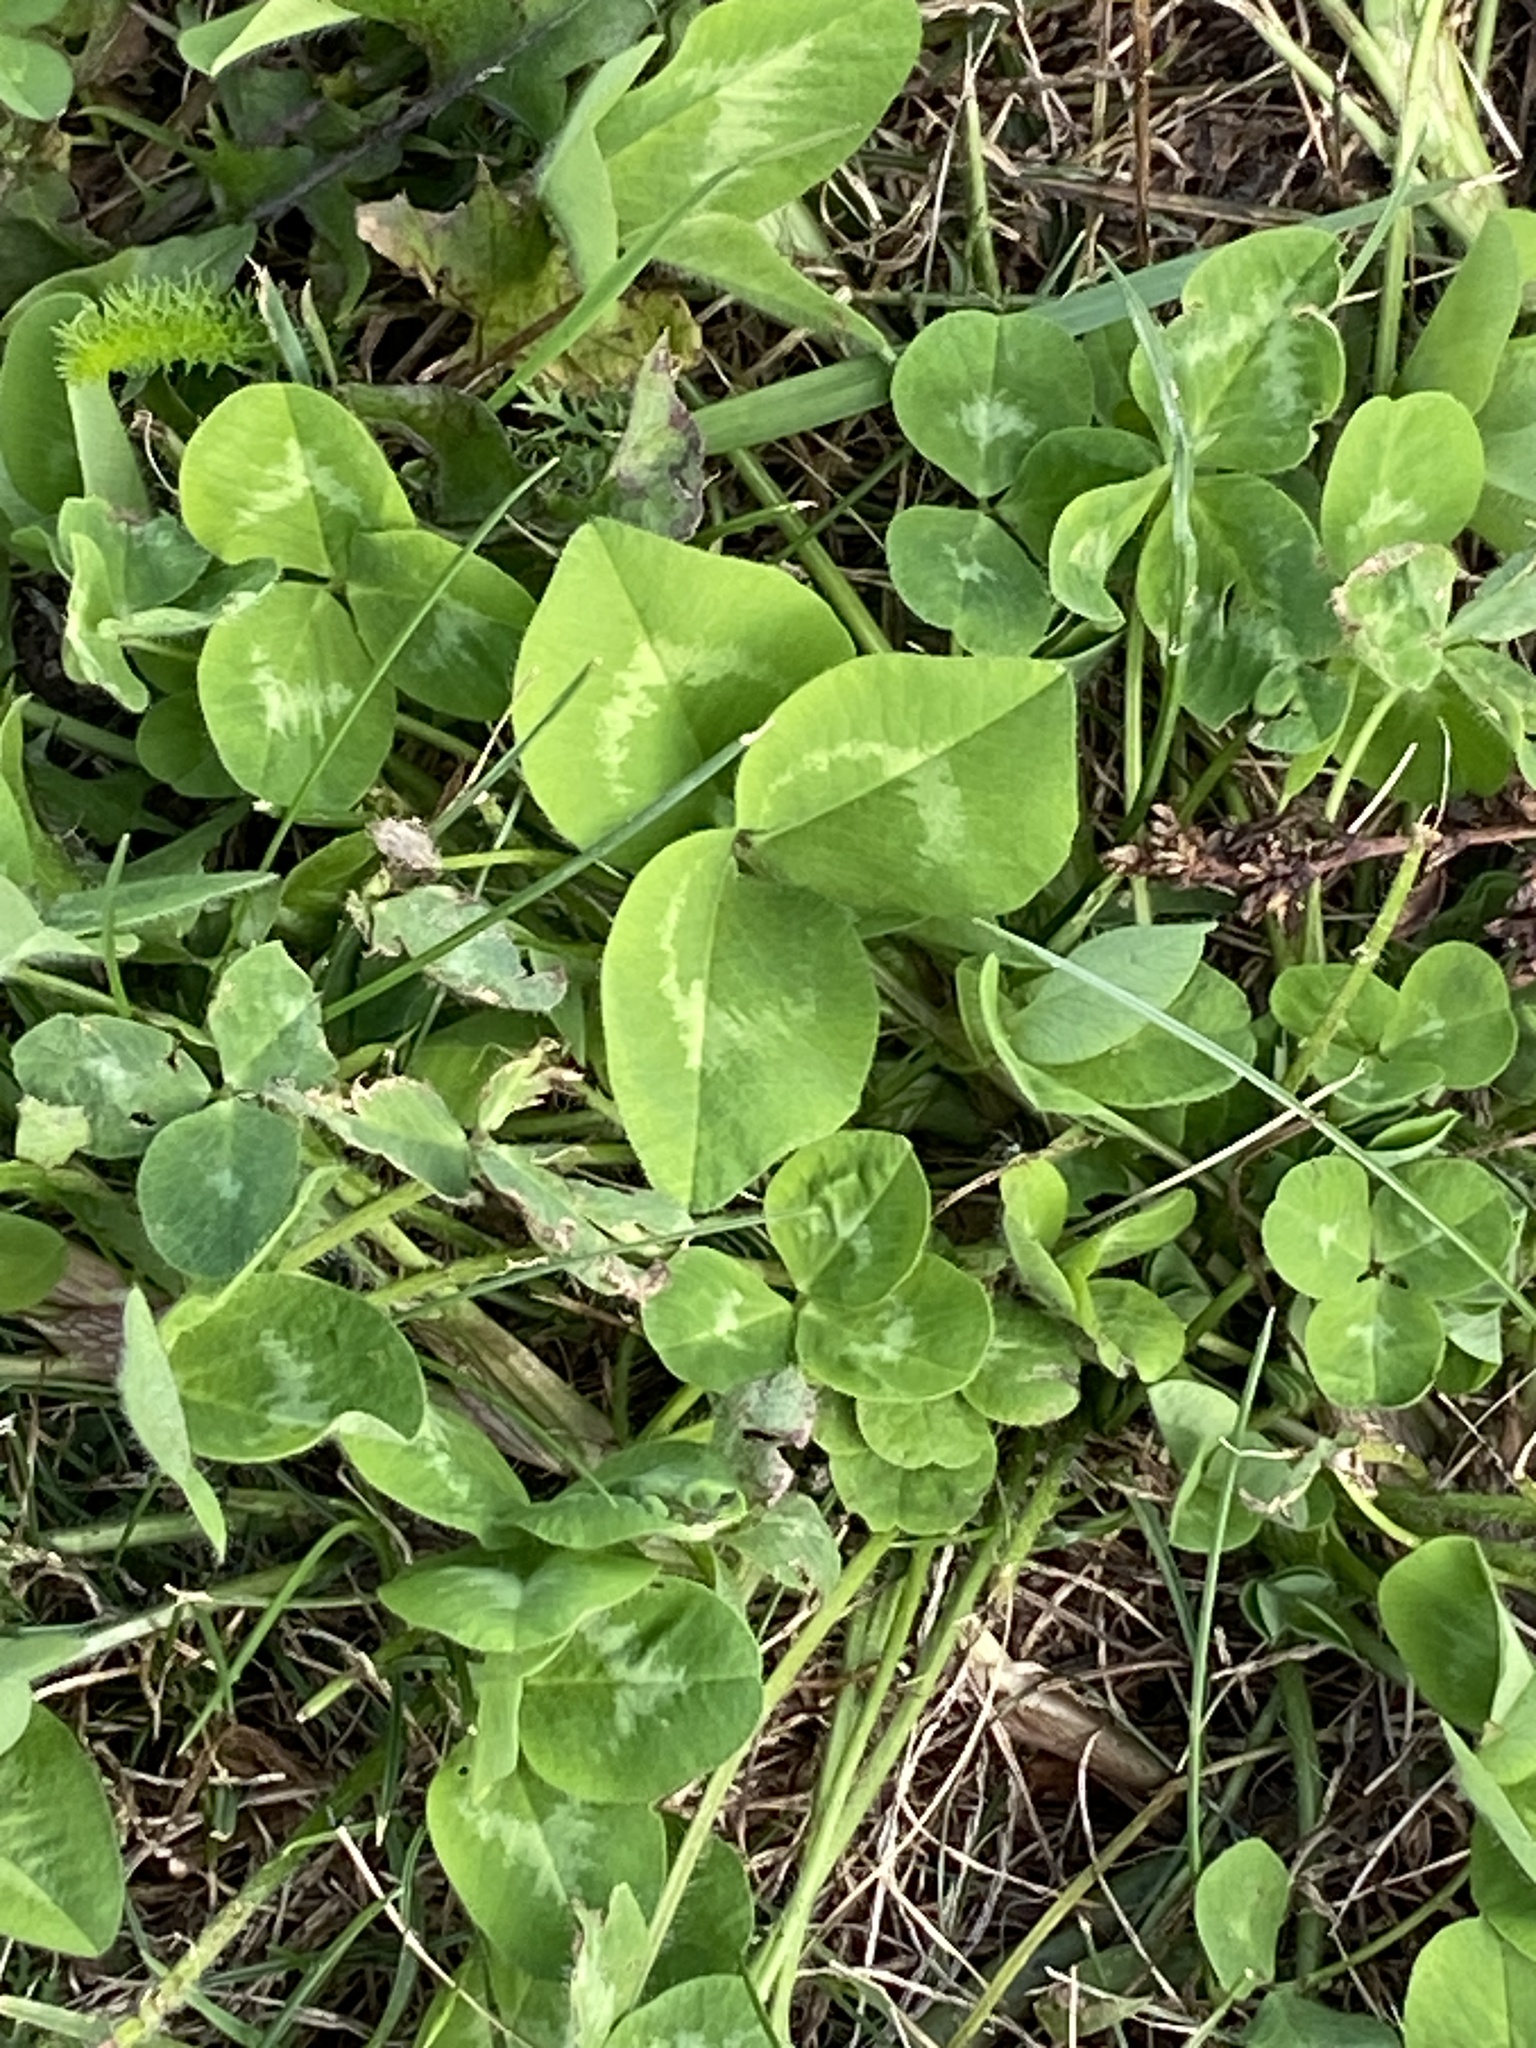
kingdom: Plantae
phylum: Tracheophyta
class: Magnoliopsida
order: Fabales
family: Fabaceae
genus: Trifolium
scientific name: Trifolium repens
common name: White clover
